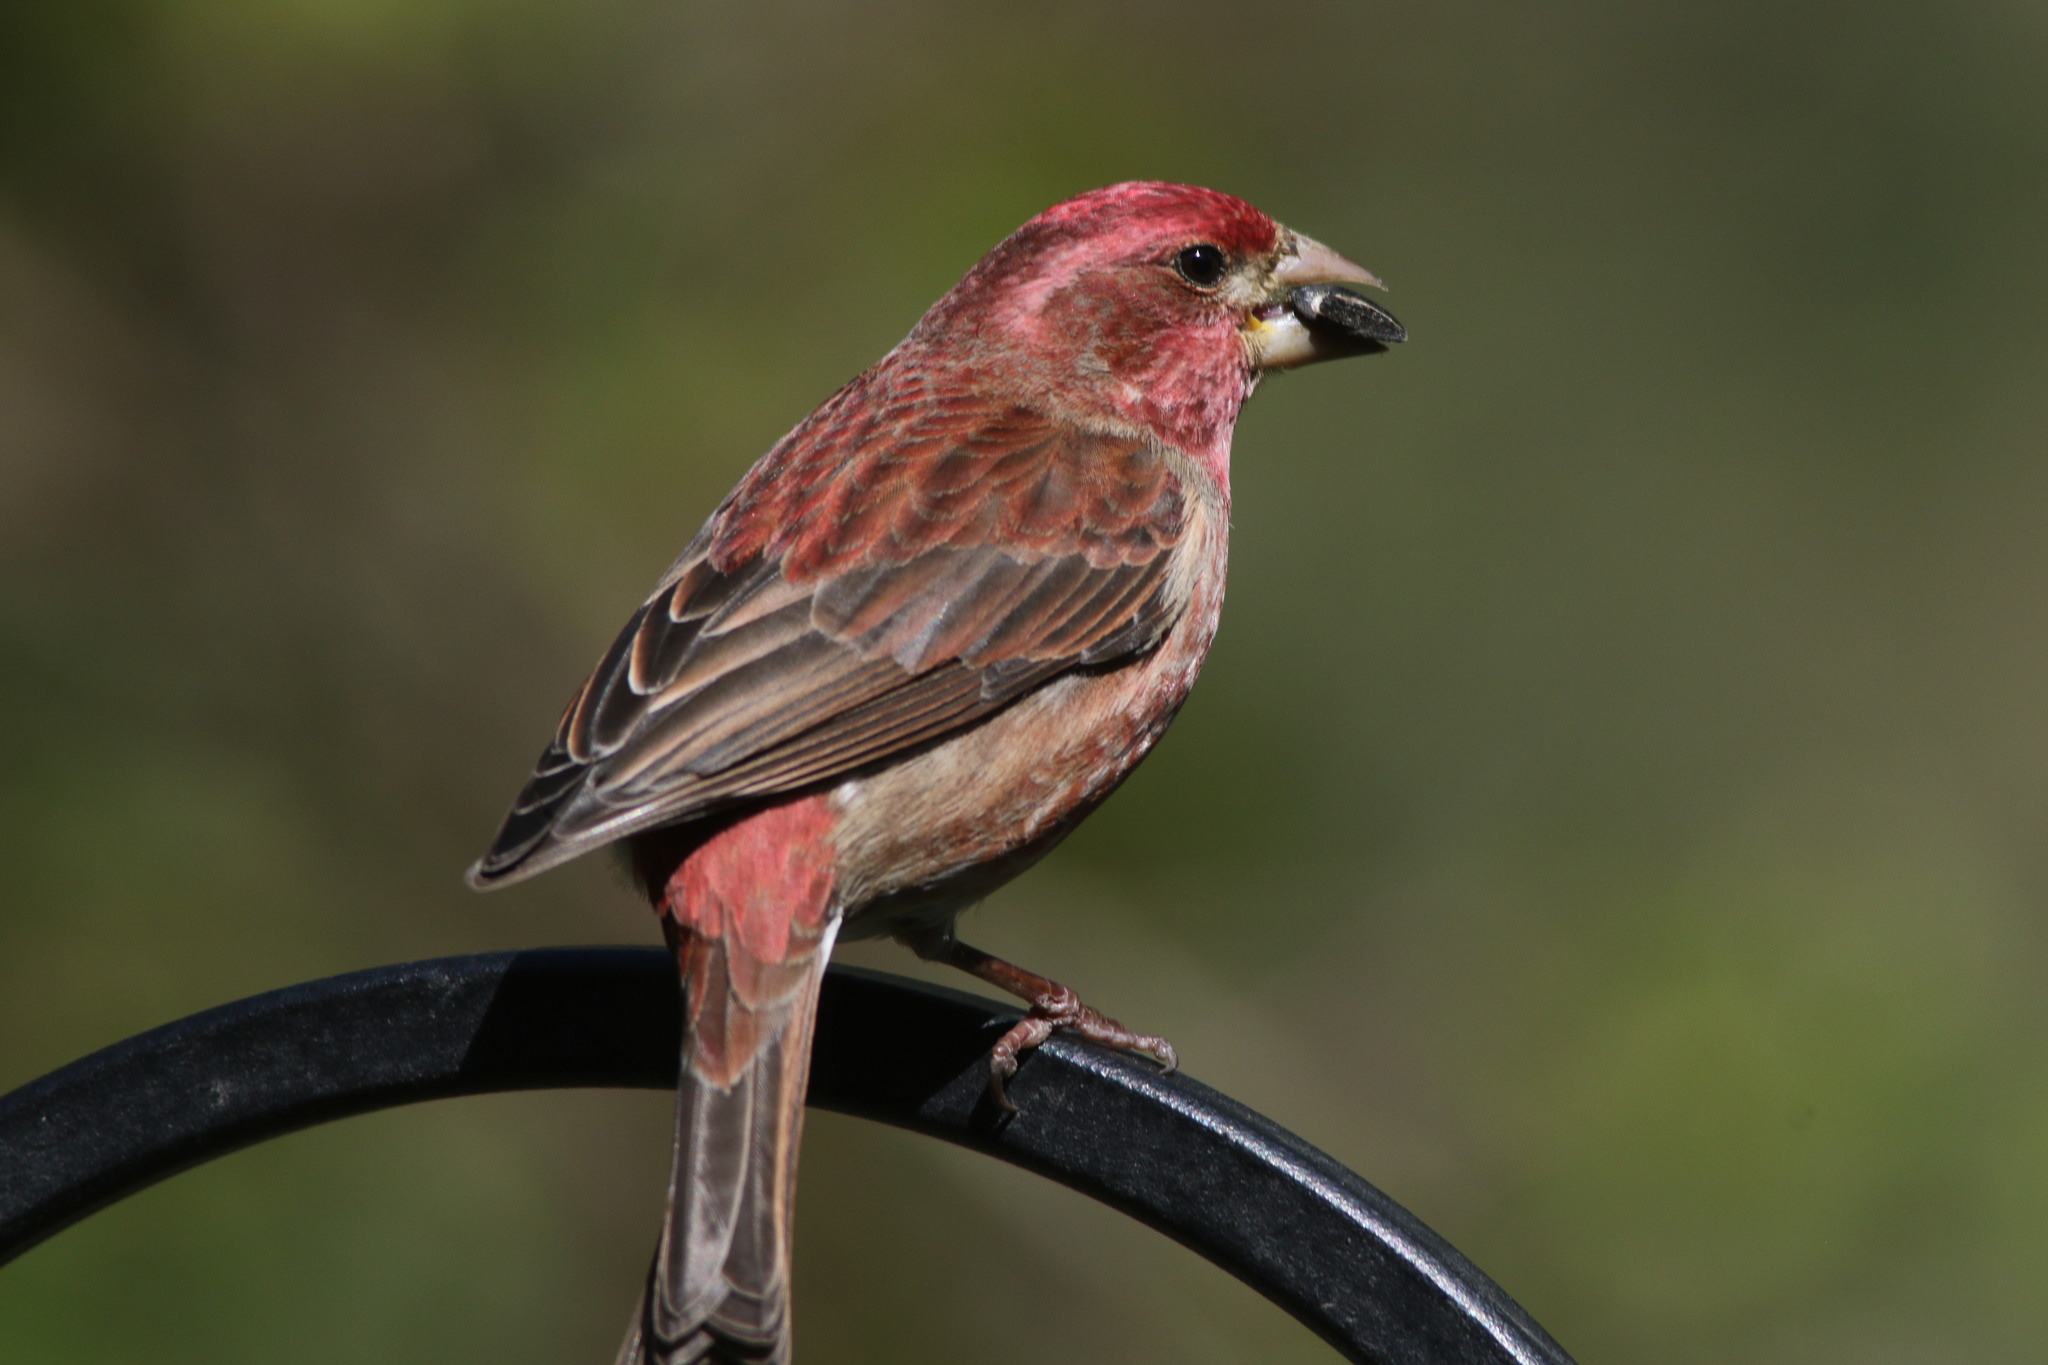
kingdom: Animalia
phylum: Chordata
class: Aves
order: Passeriformes
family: Fringillidae
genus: Haemorhous
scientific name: Haemorhous purpureus
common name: Purple finch
